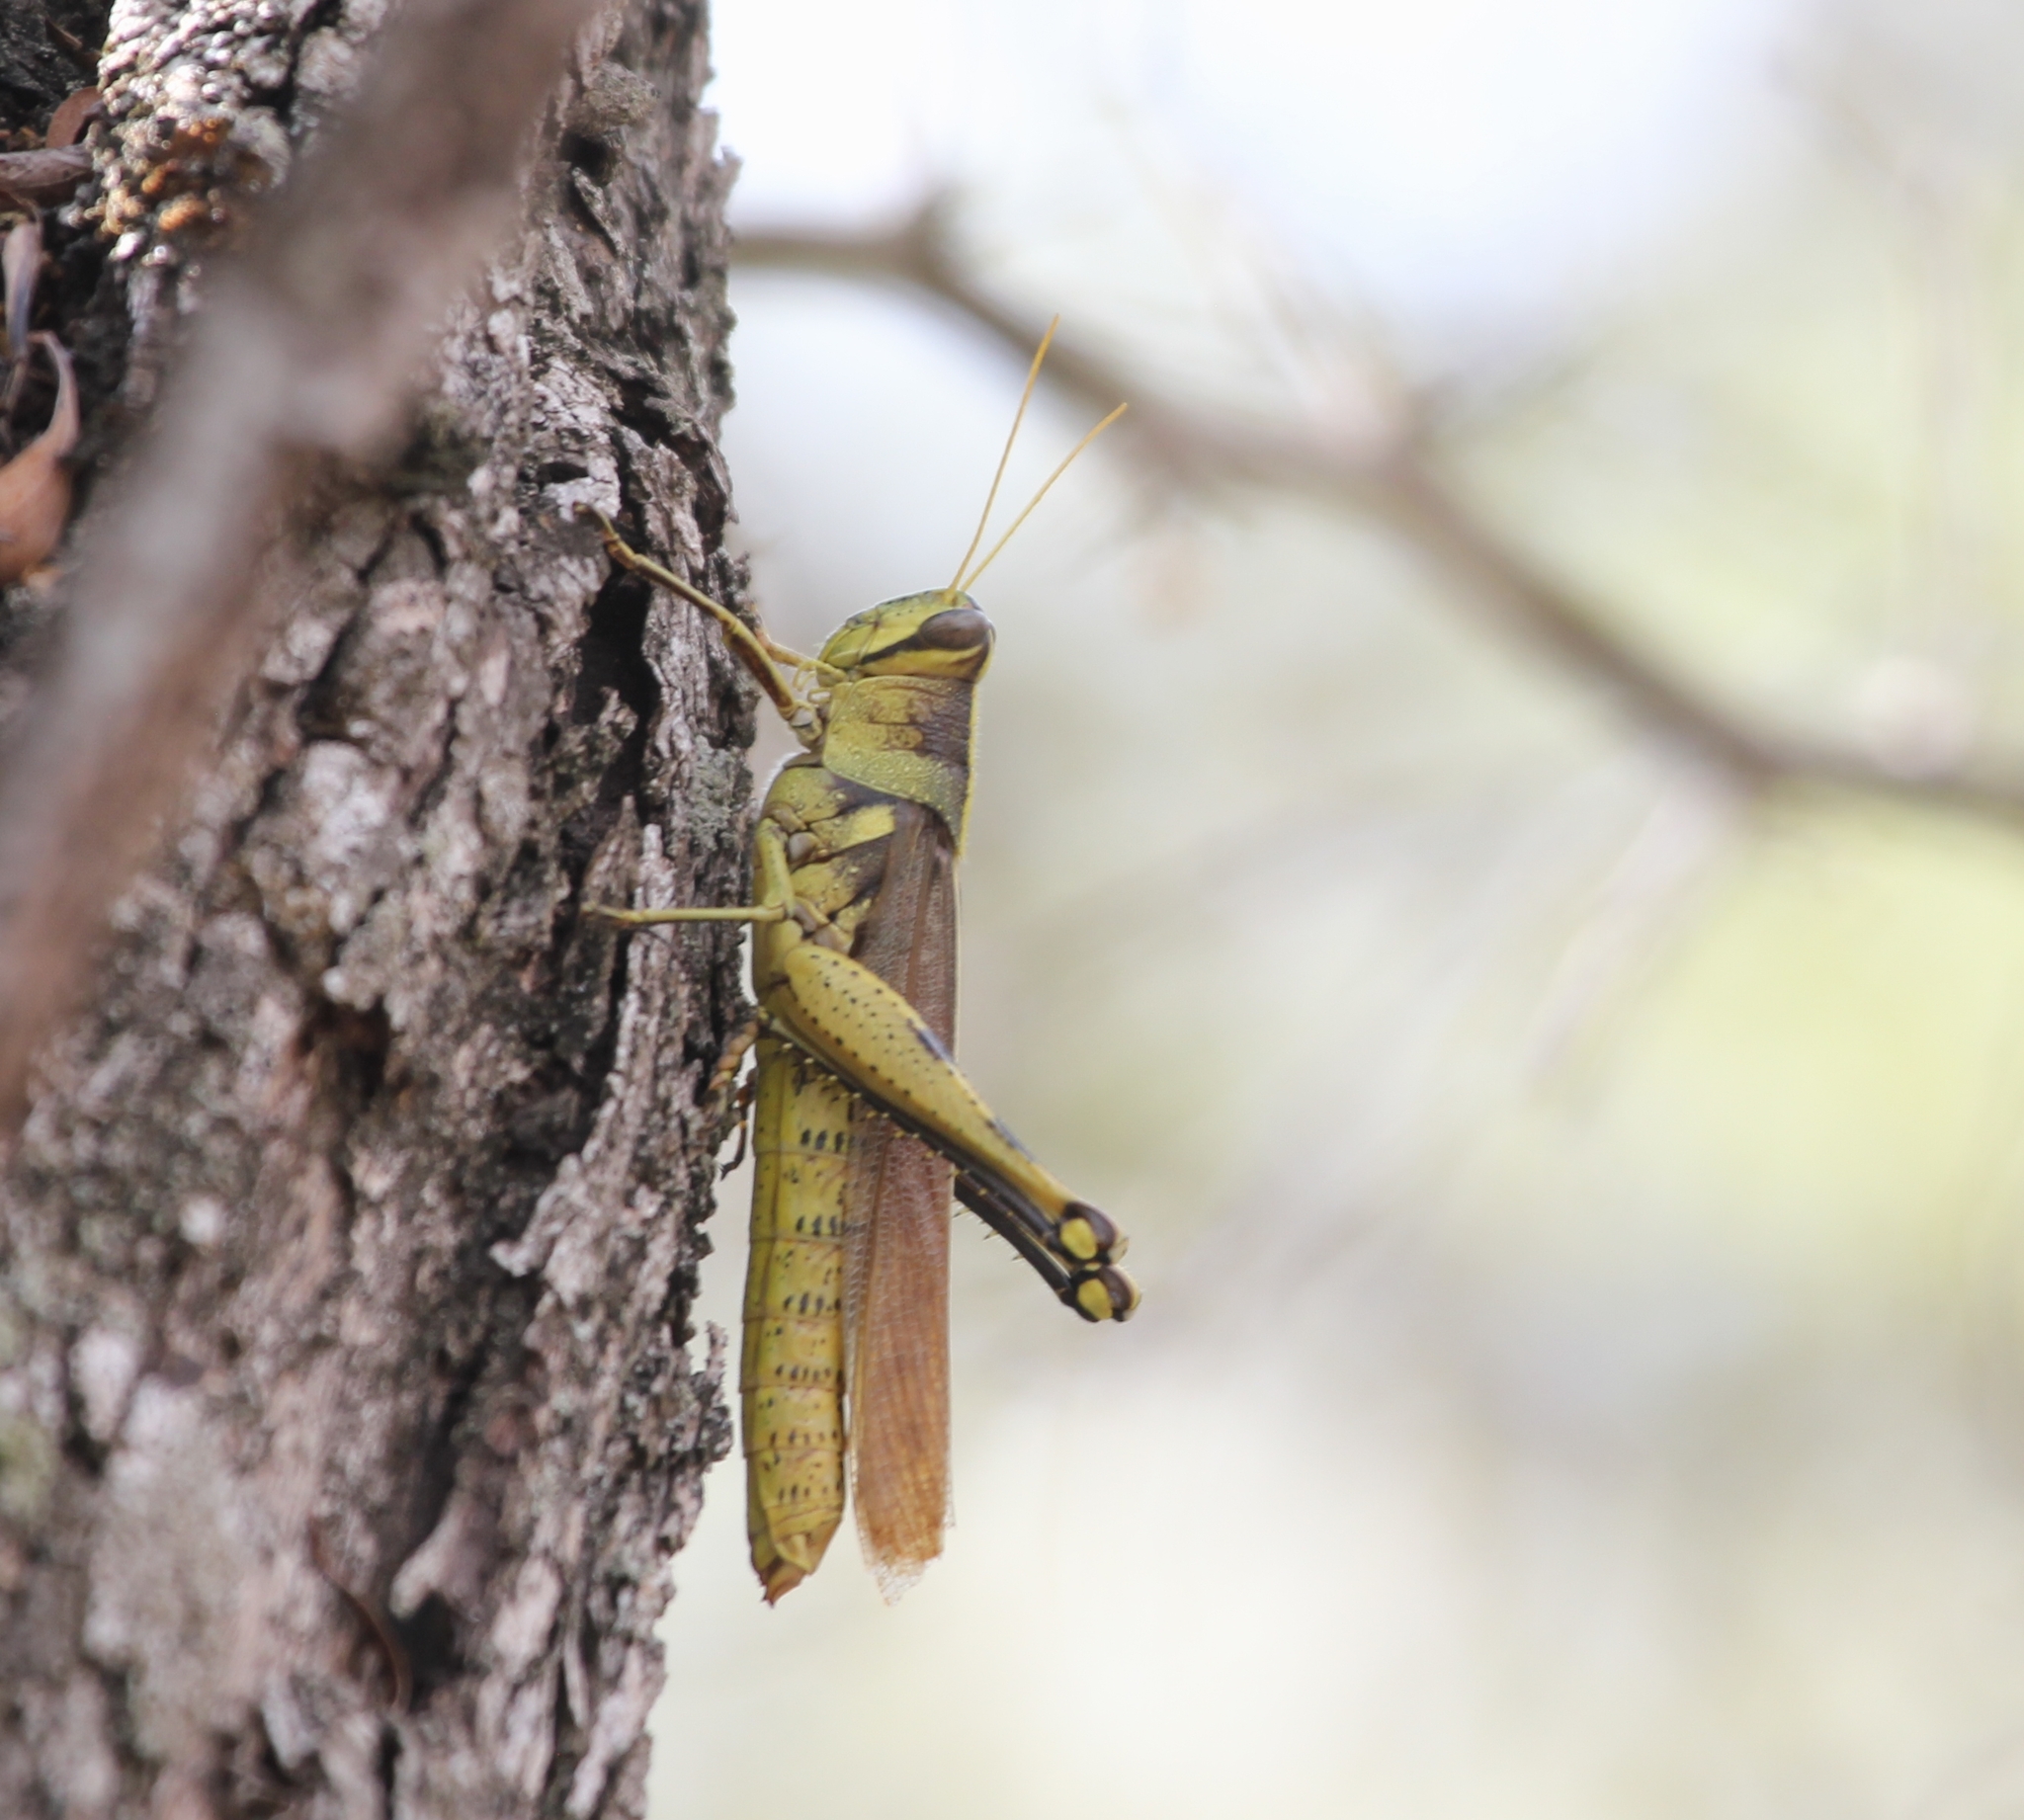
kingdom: Animalia
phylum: Arthropoda
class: Insecta
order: Orthoptera
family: Acrididae
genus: Schistocerca
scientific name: Schistocerca obscura
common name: Obscure bird grasshopper
